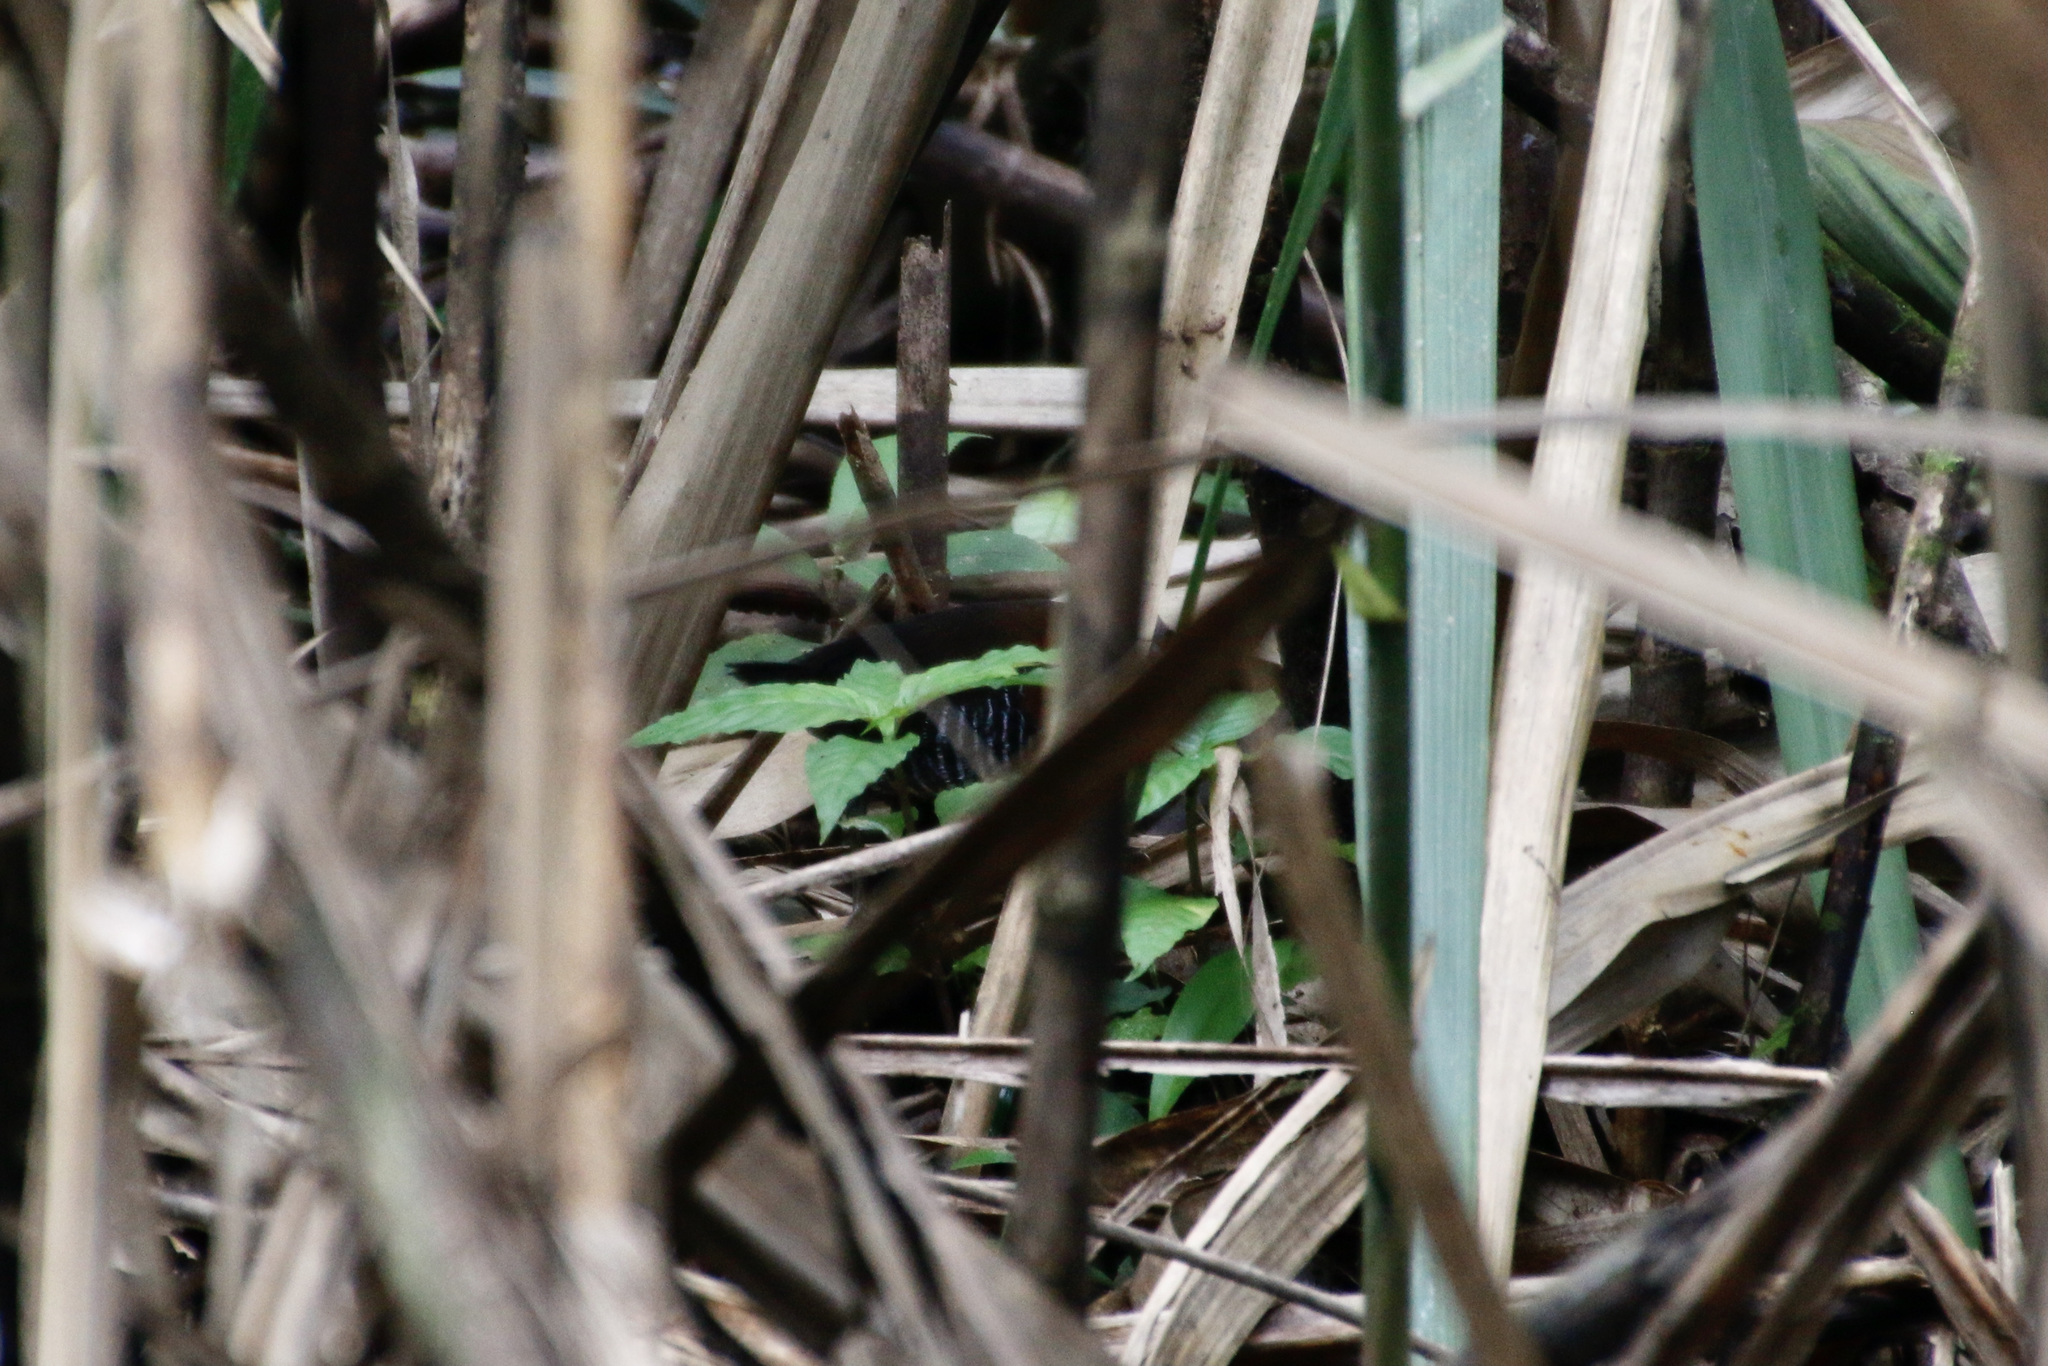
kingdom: Animalia
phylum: Chordata
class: Aves
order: Gruiformes
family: Rallidae
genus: Laterallus
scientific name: Laterallus albigularis
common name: White-throated crake
